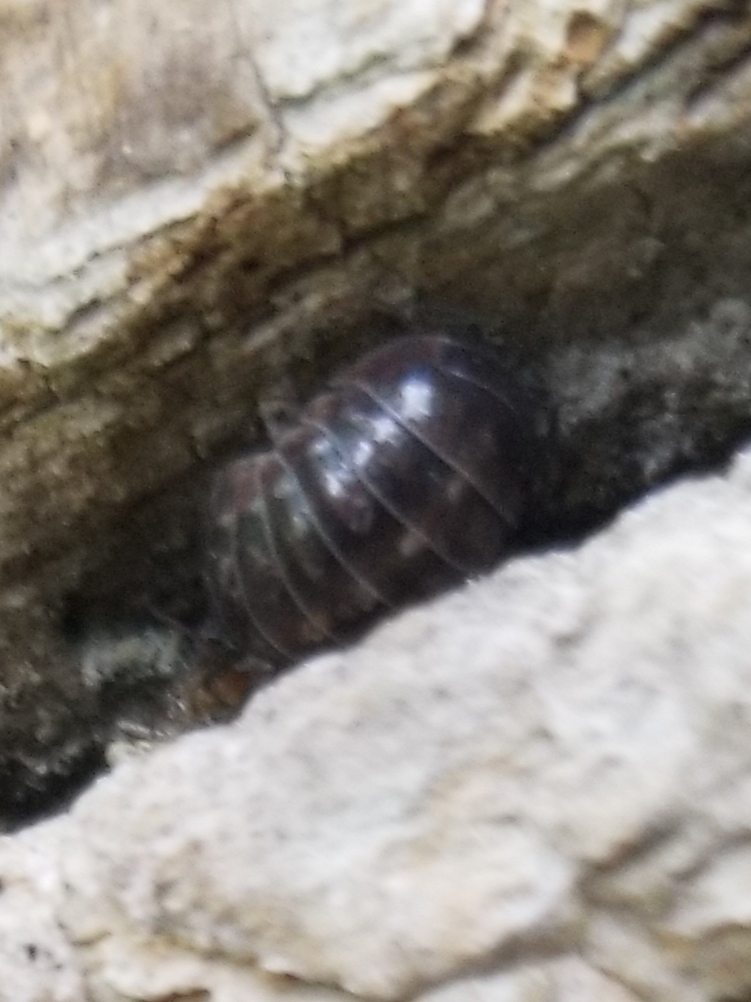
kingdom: Animalia
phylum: Arthropoda
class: Malacostraca
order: Isopoda
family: Armadillidiidae
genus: Armadillidium
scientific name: Armadillidium vulgare
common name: Common pill woodlouse
